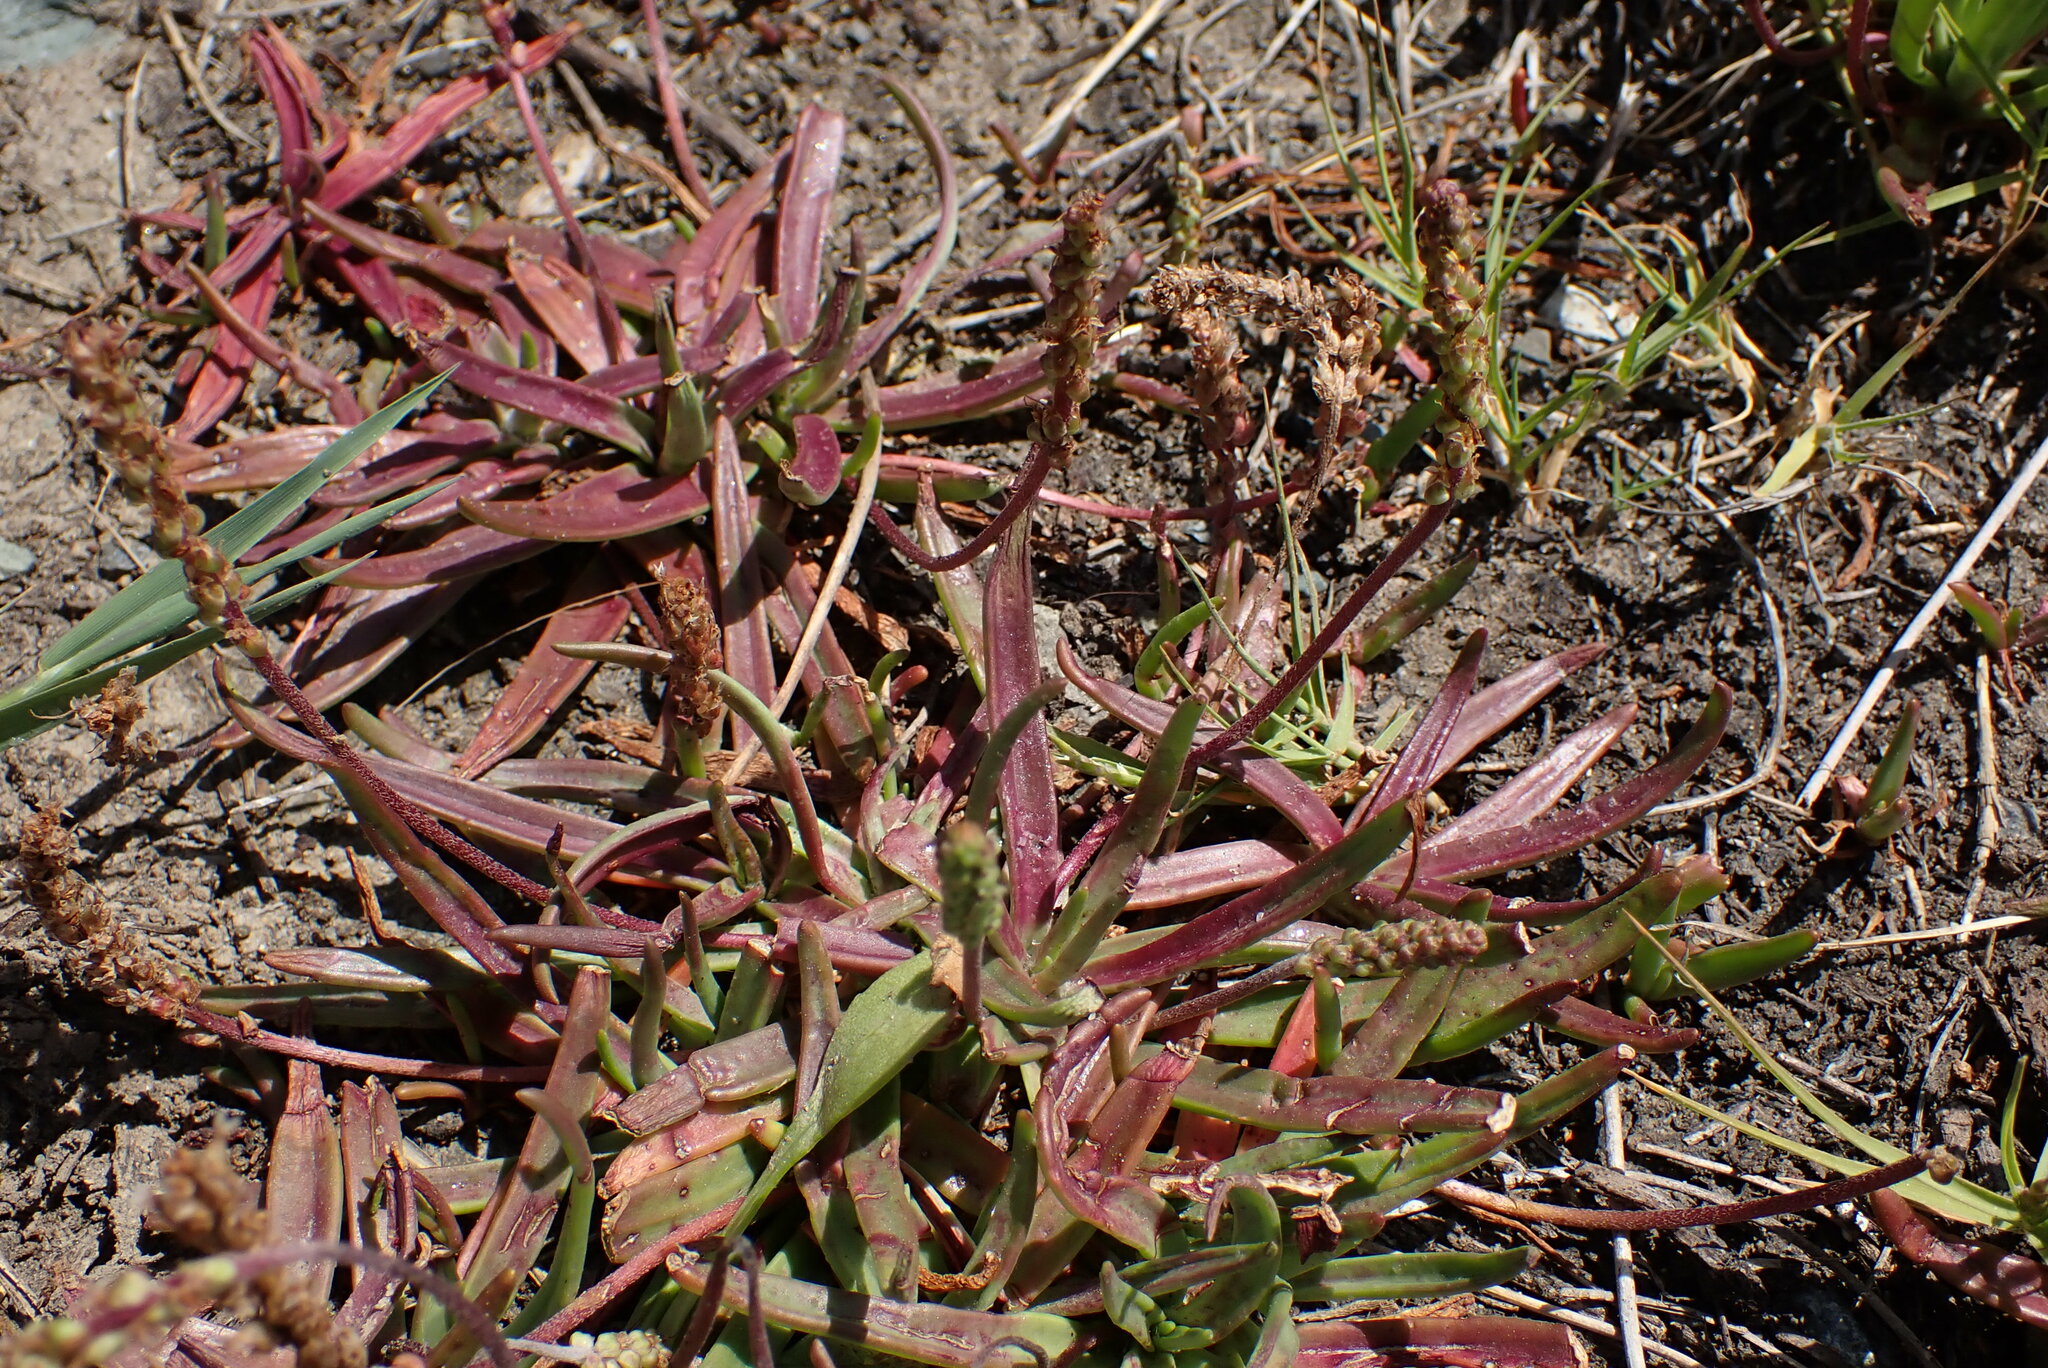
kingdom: Plantae
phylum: Tracheophyta
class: Magnoliopsida
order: Lamiales
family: Plantaginaceae
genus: Plantago
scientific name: Plantago maritima
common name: Sea plantain
